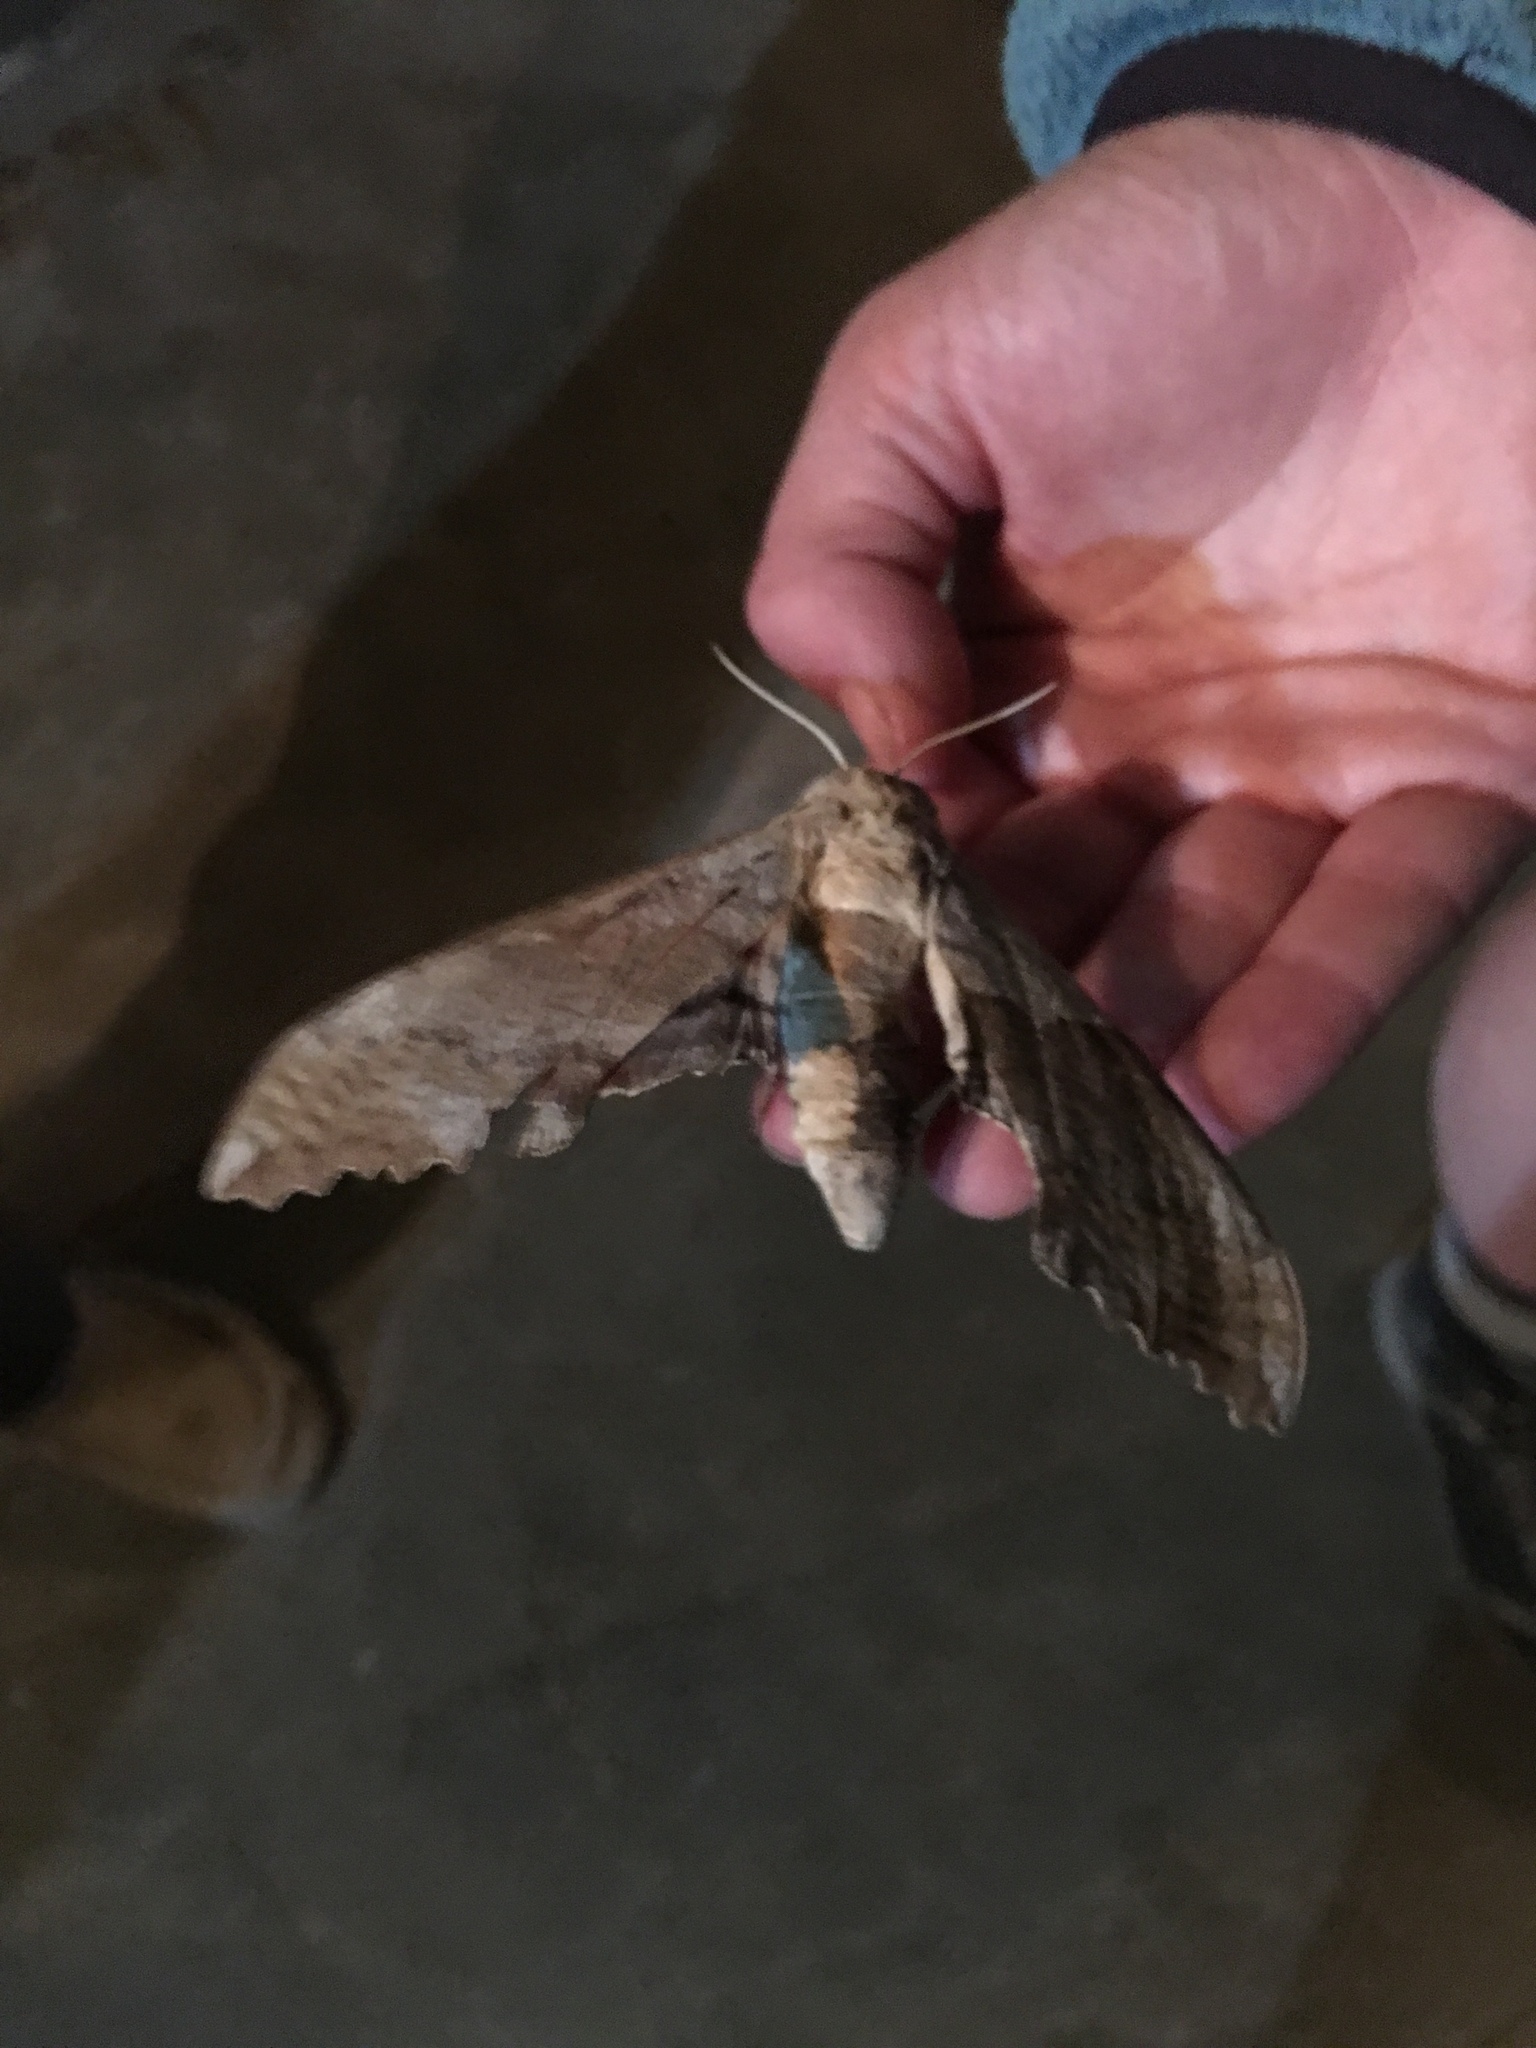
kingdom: Animalia
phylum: Arthropoda
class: Insecta
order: Lepidoptera
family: Sphingidae
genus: Pachysphinx
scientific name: Pachysphinx occidentalis
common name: Western poplar sphinx
